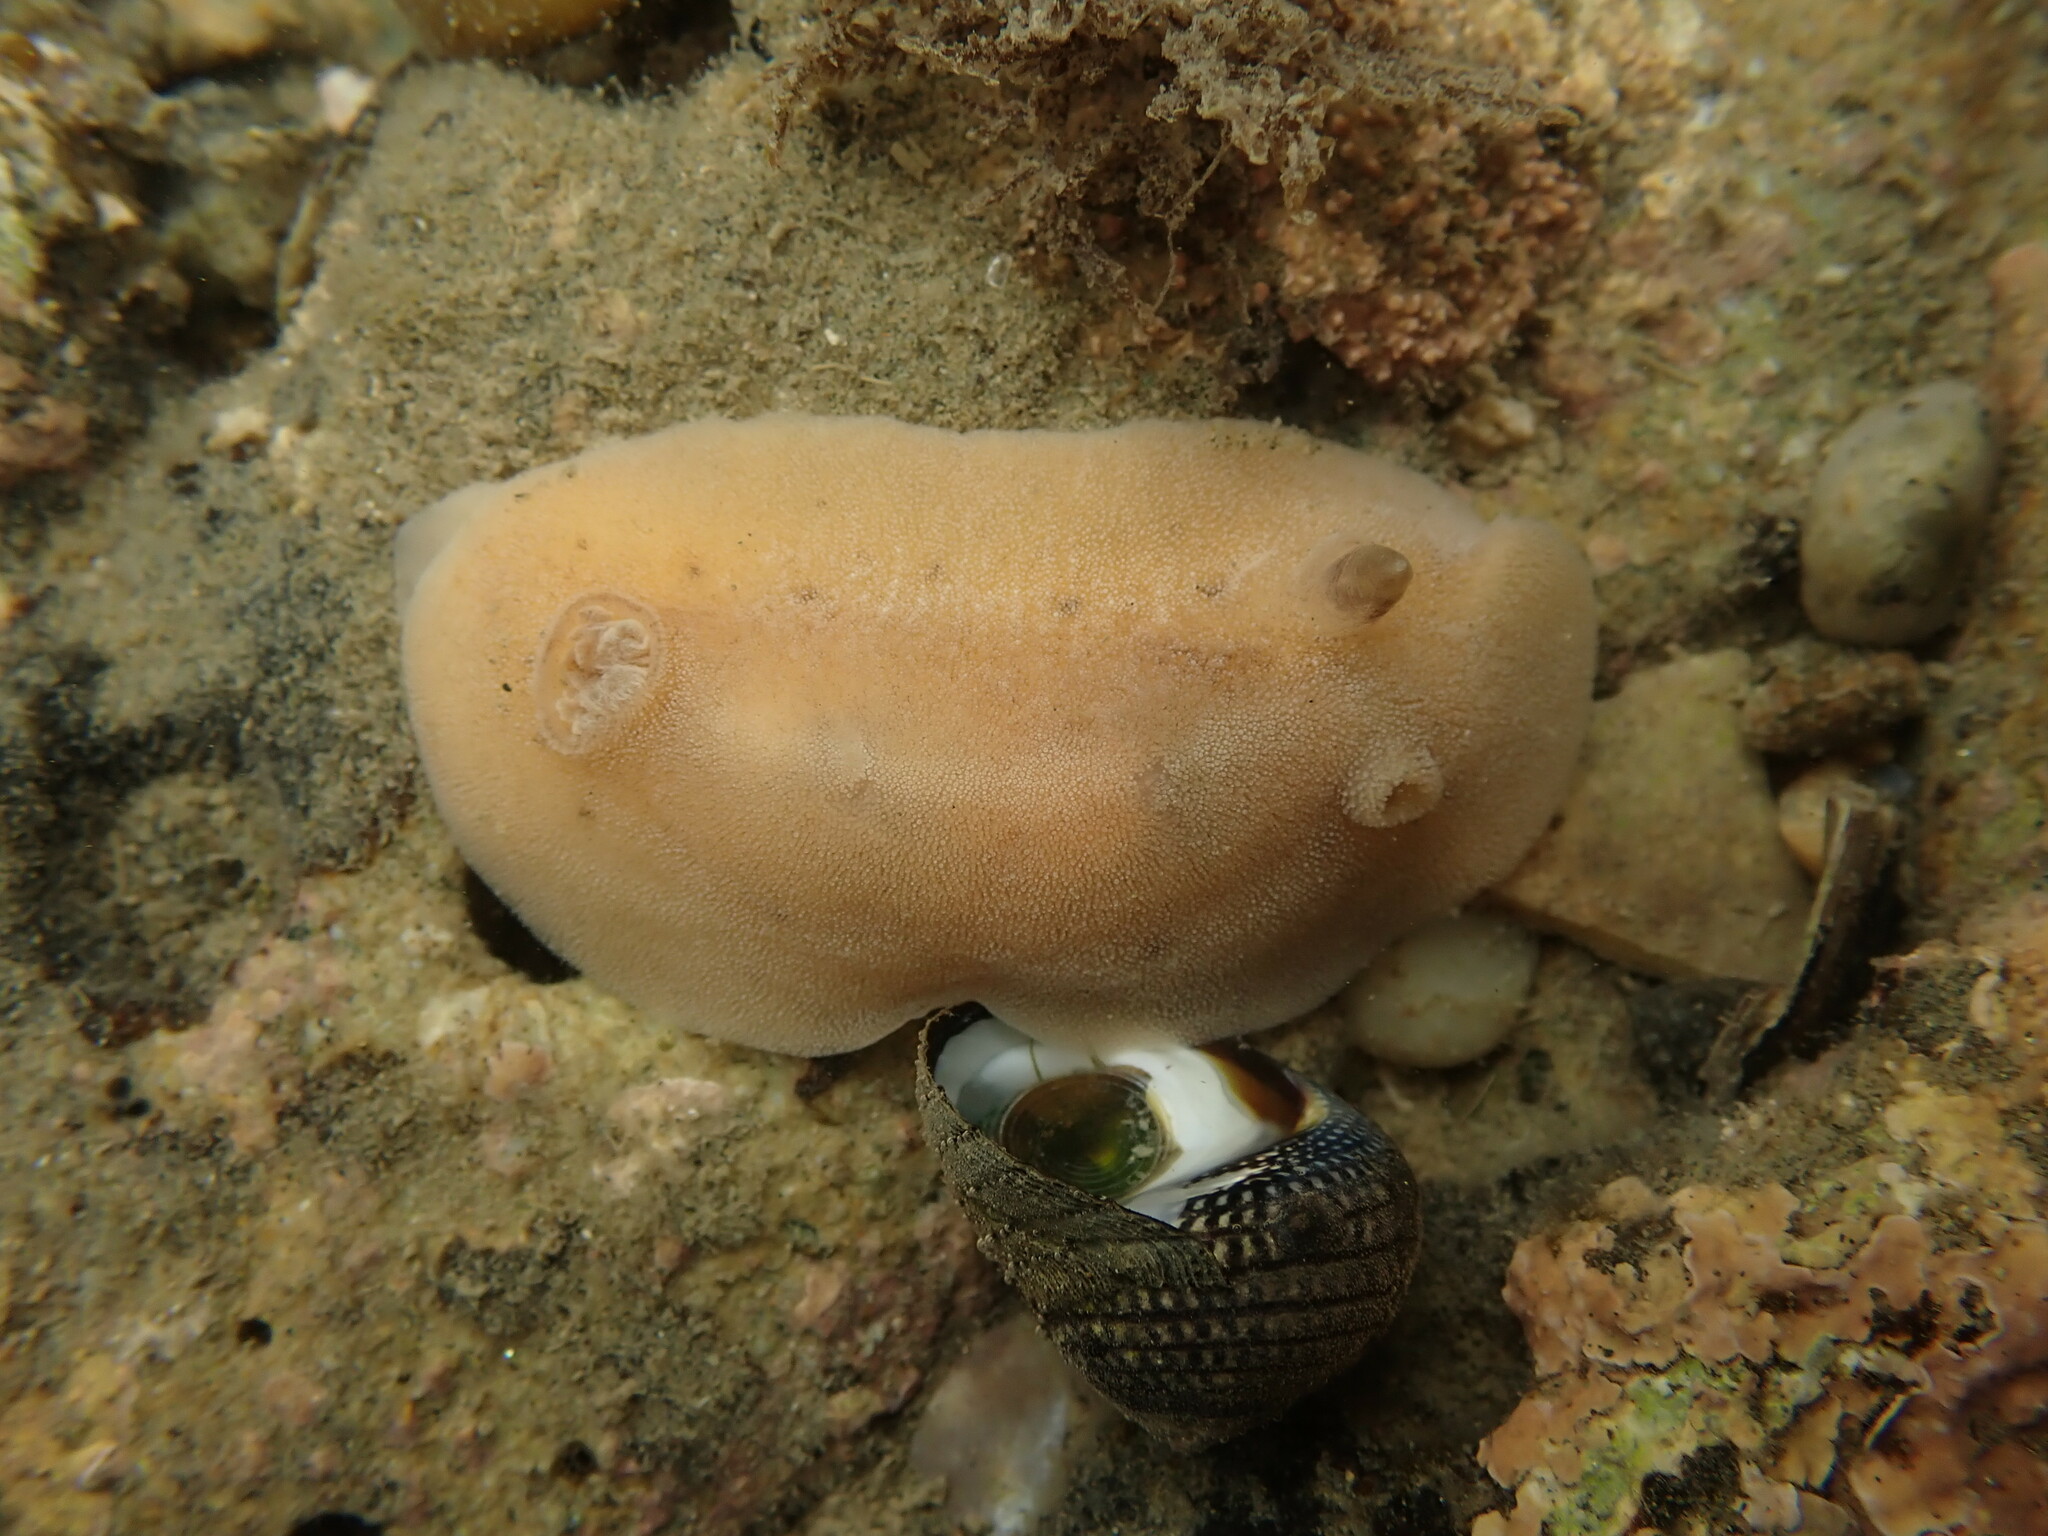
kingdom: Animalia
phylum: Mollusca
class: Gastropoda
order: Nudibranchia
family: Discodorididae
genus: Alloiodoris
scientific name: Alloiodoris lanuginata
